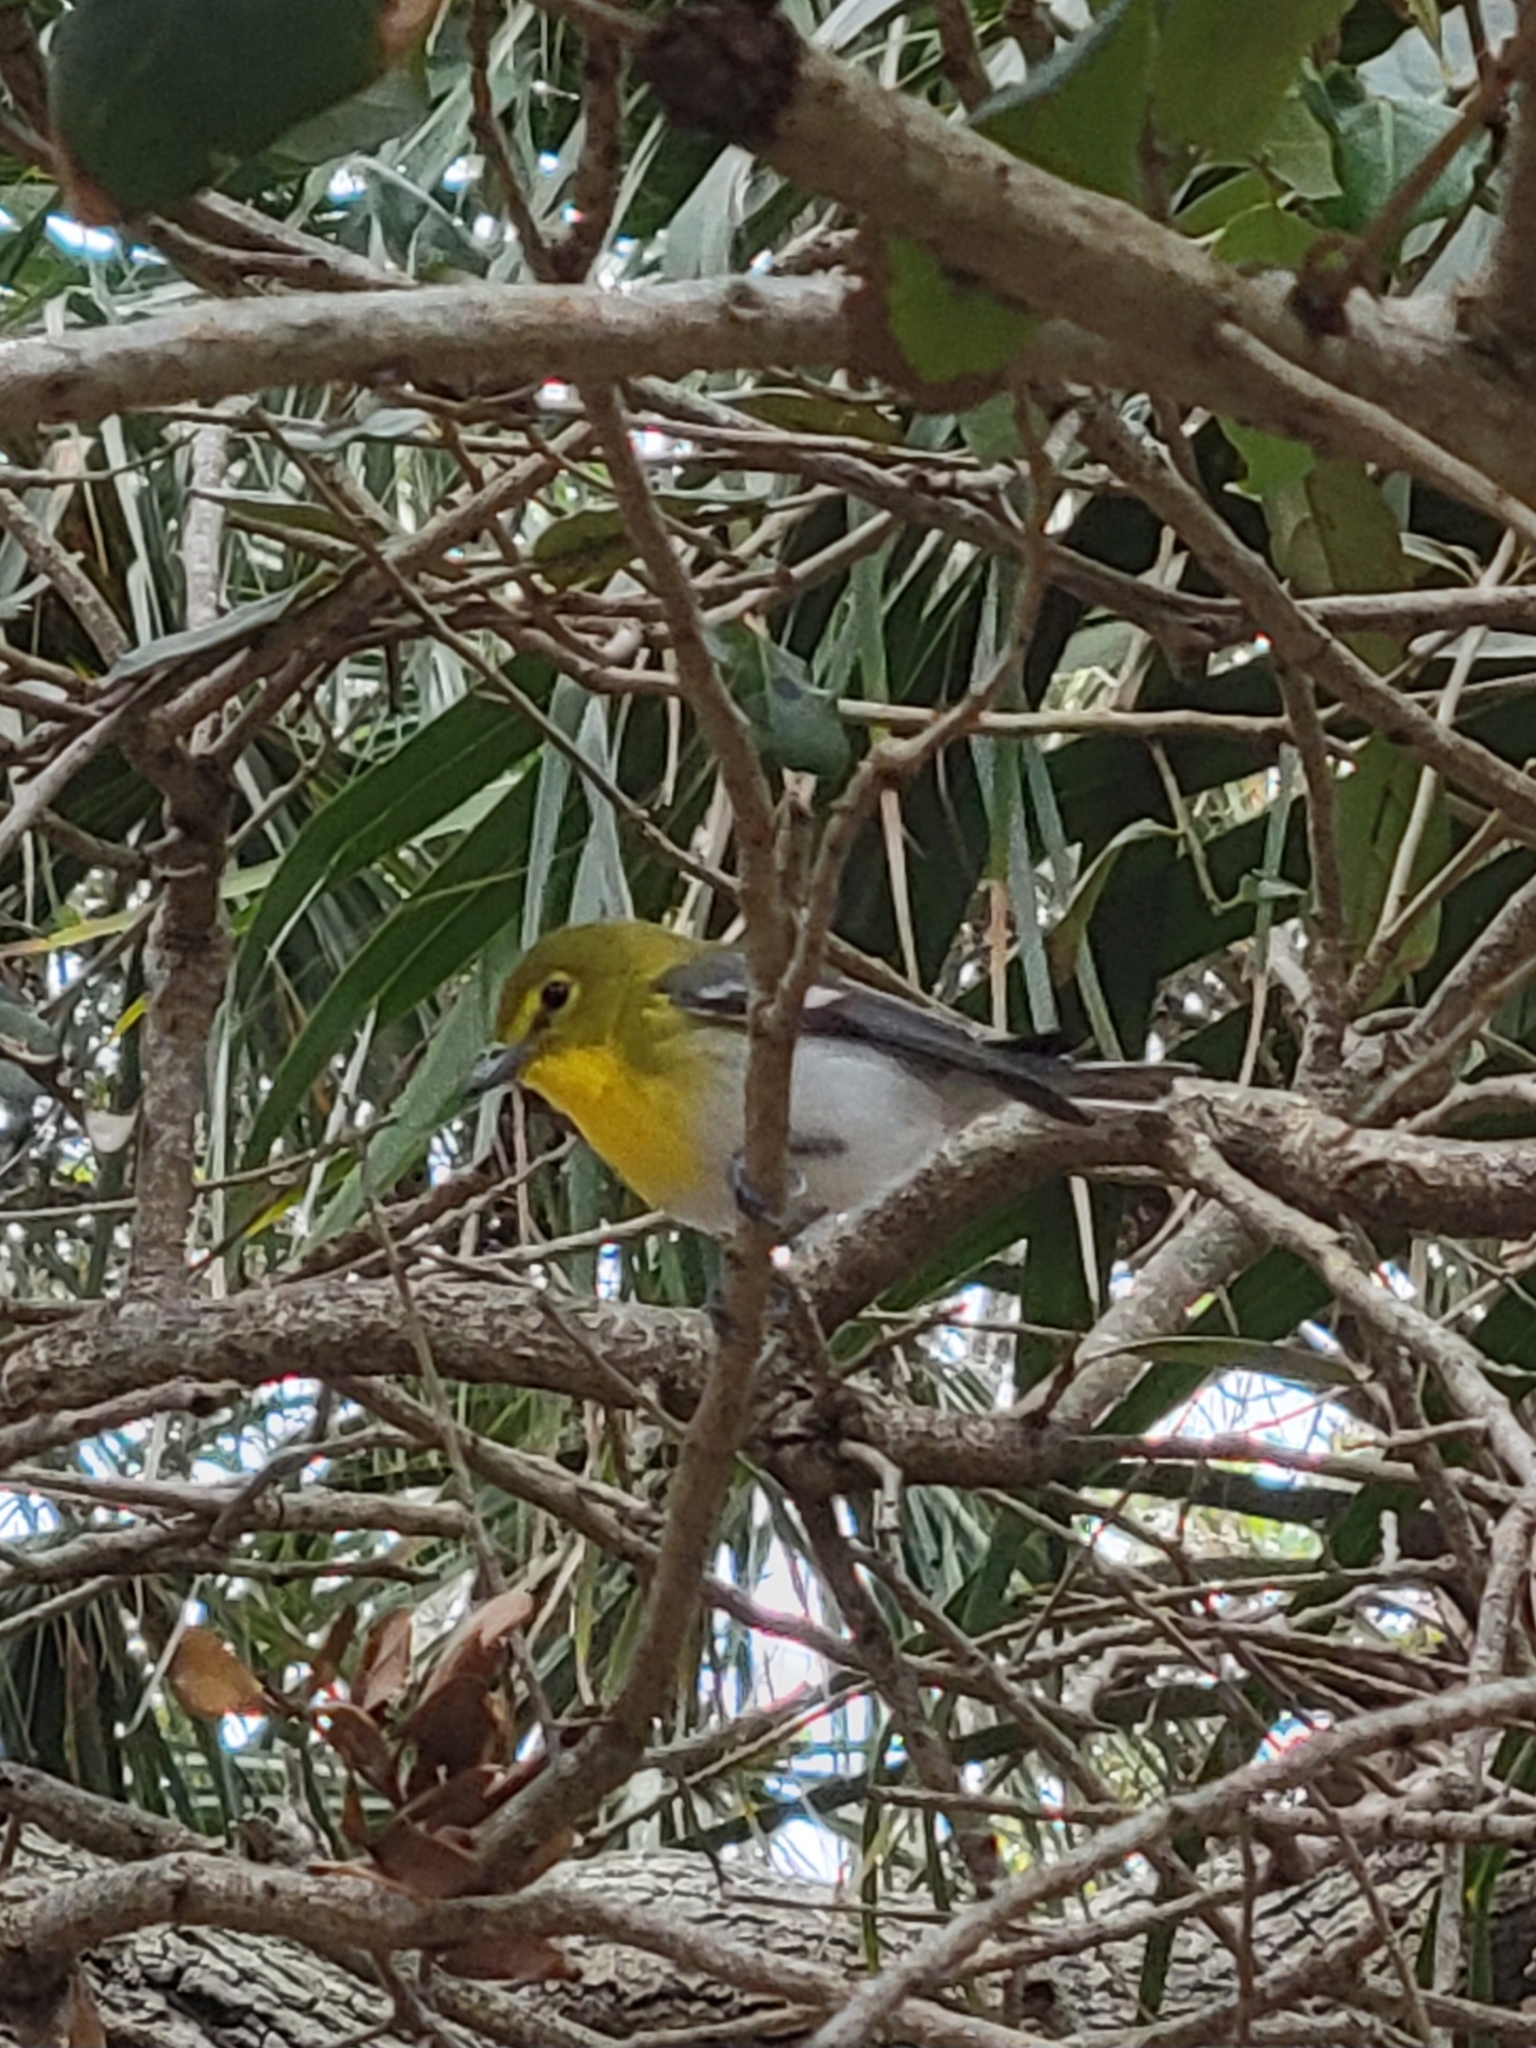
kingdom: Animalia
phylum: Chordata
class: Aves
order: Passeriformes
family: Vireonidae
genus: Vireo
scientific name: Vireo flavifrons
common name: Yellow-throated vireo
